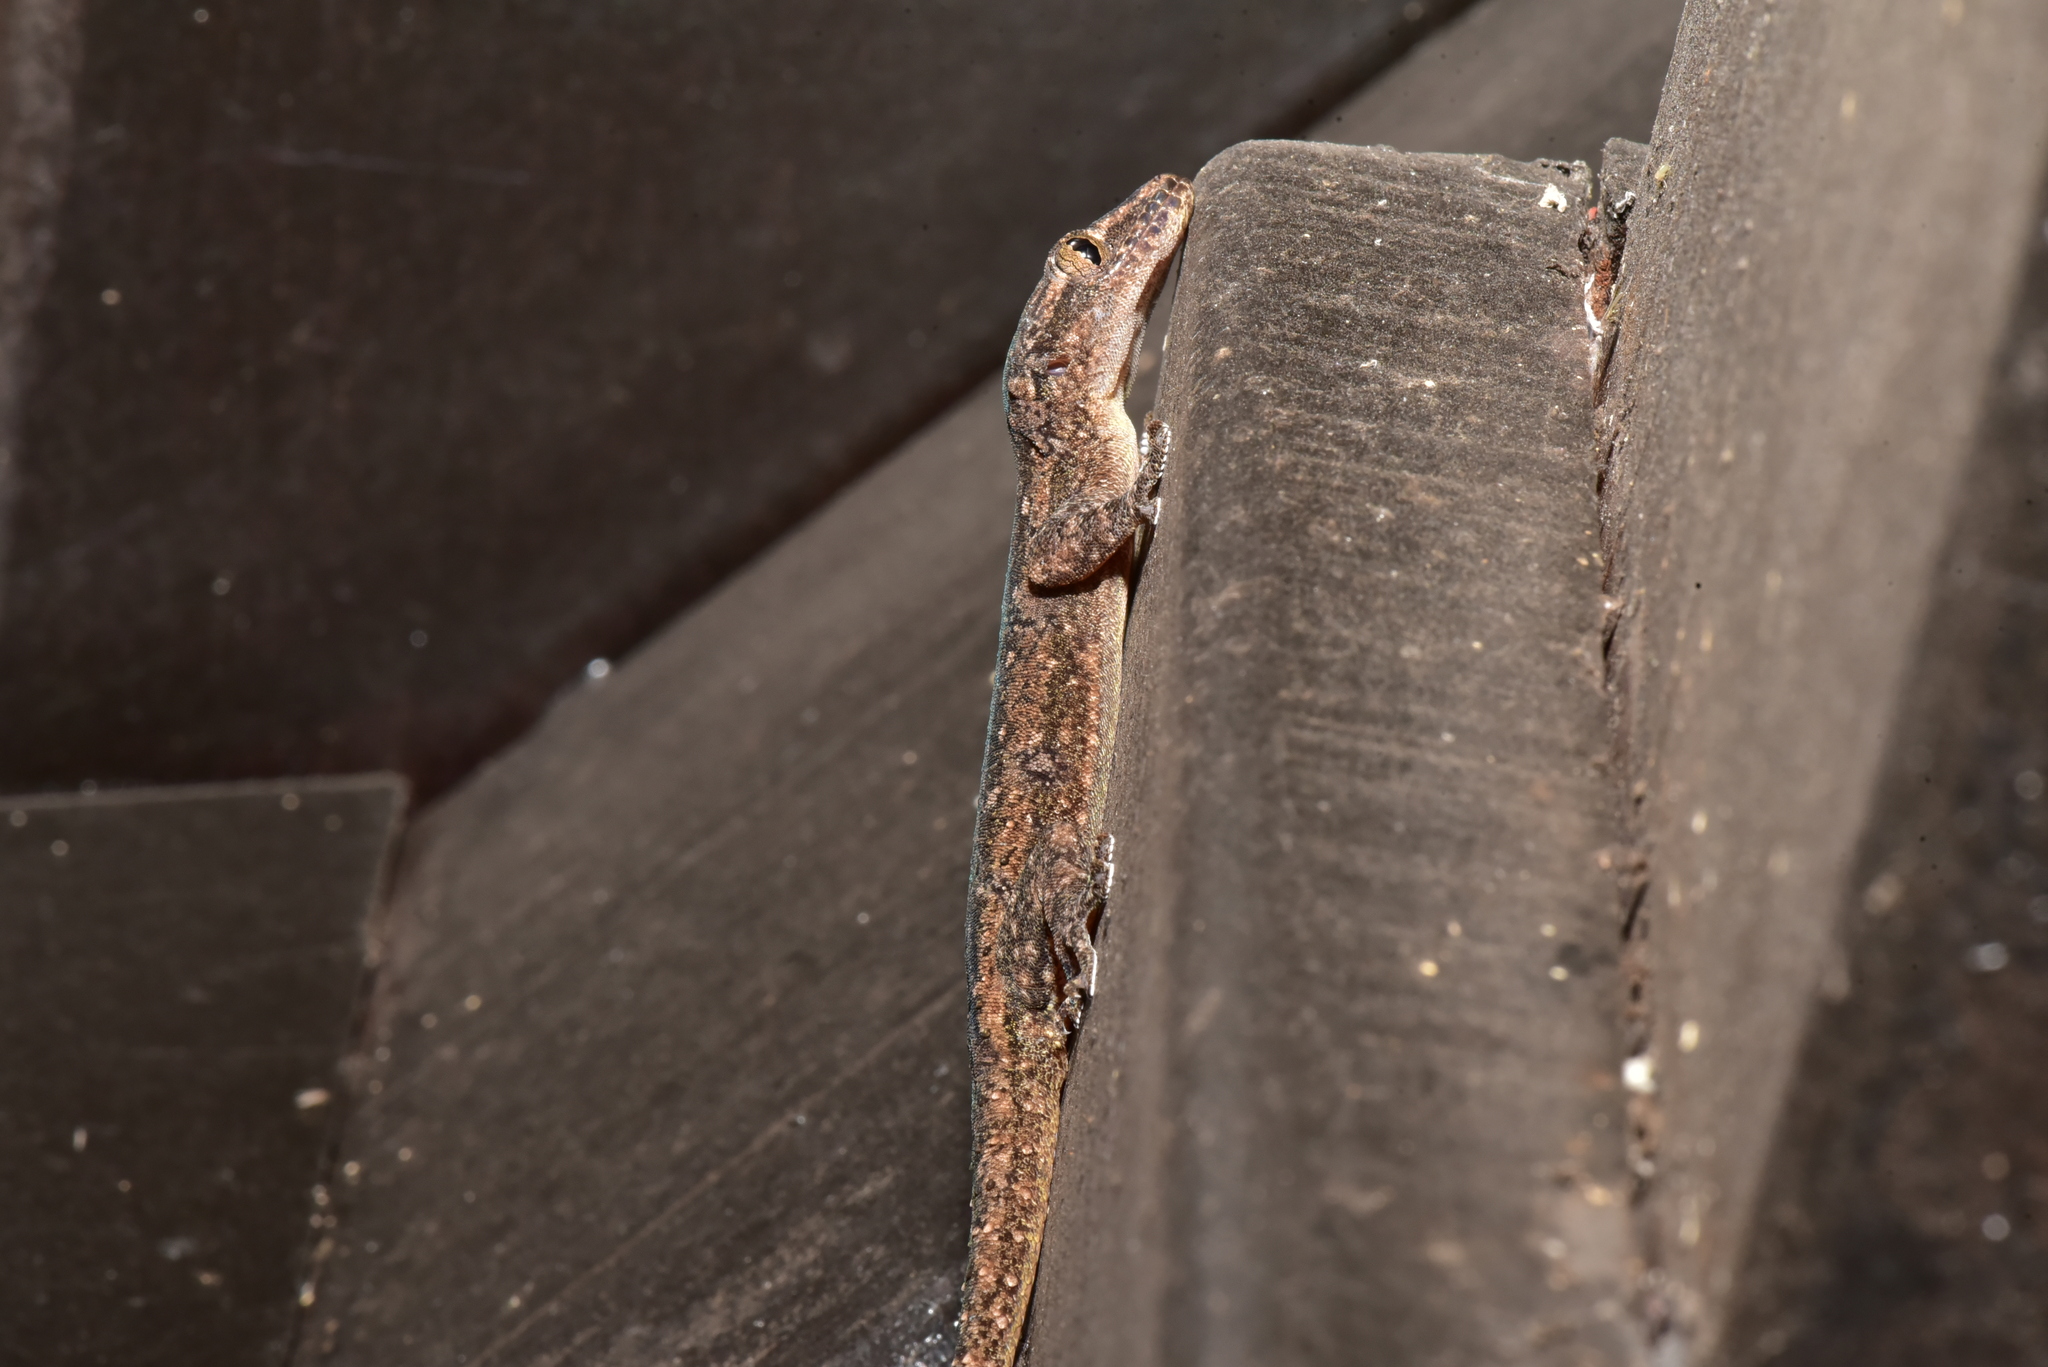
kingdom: Animalia
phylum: Chordata
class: Squamata
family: Gekkonidae
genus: Hemidactylus
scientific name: Hemidactylus frenatus
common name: Common house gecko
